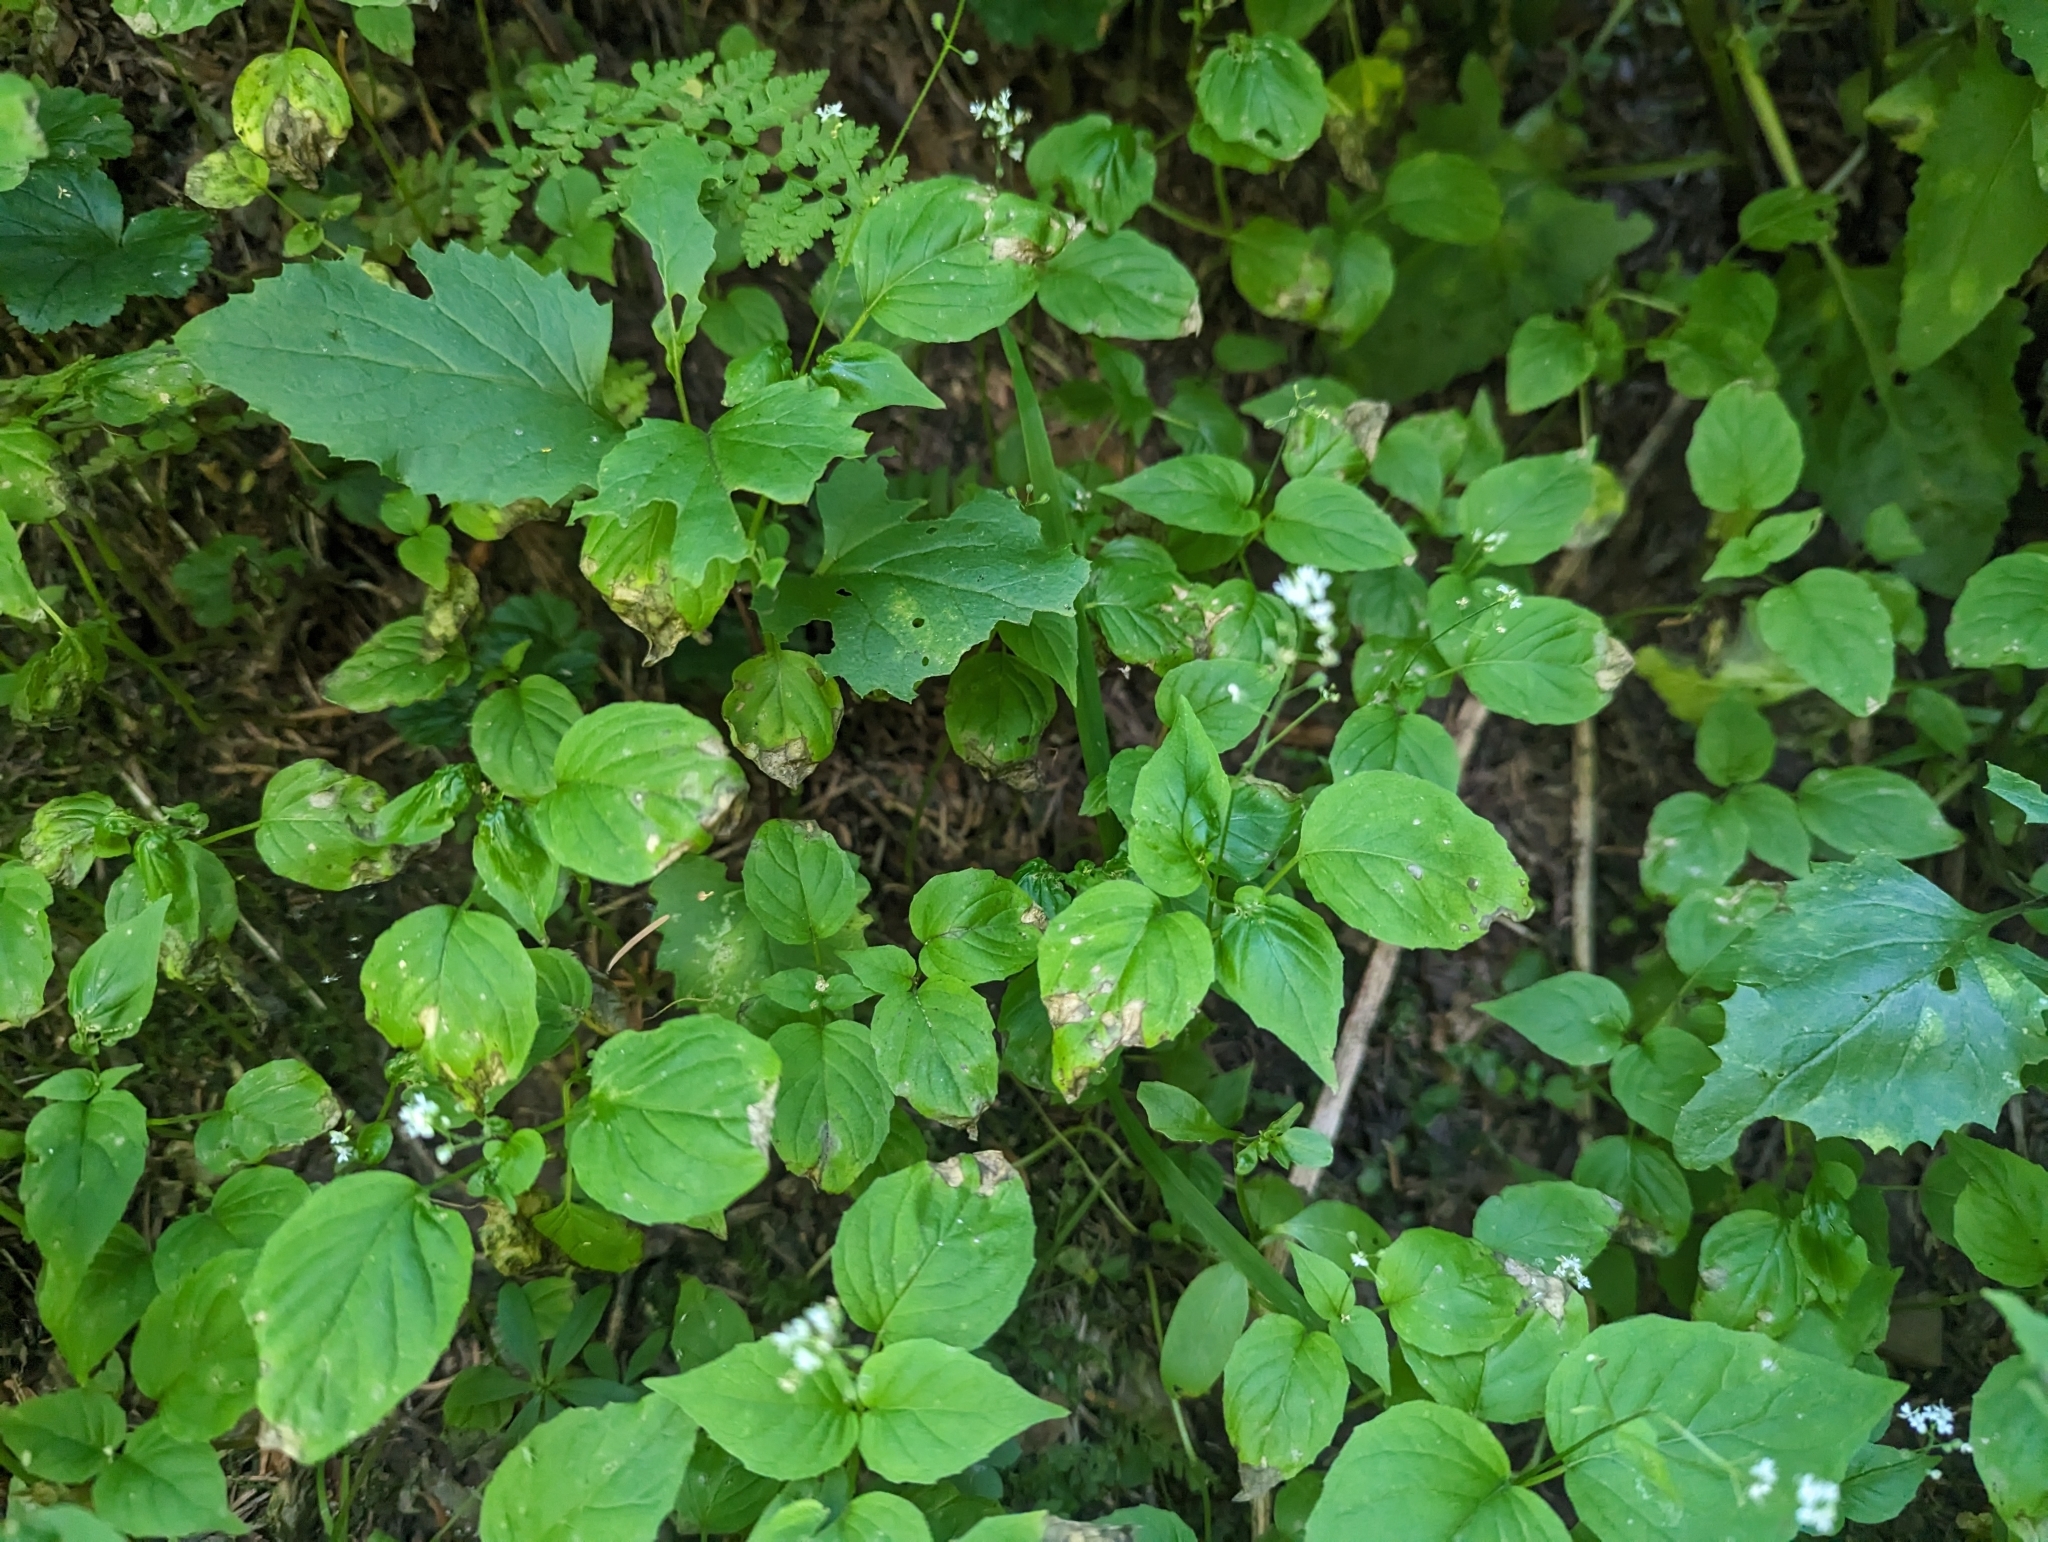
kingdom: Plantae
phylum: Tracheophyta
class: Magnoliopsida
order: Myrtales
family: Onagraceae
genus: Circaea
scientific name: Circaea alpina
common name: Alpine enchanter's-nightshade
